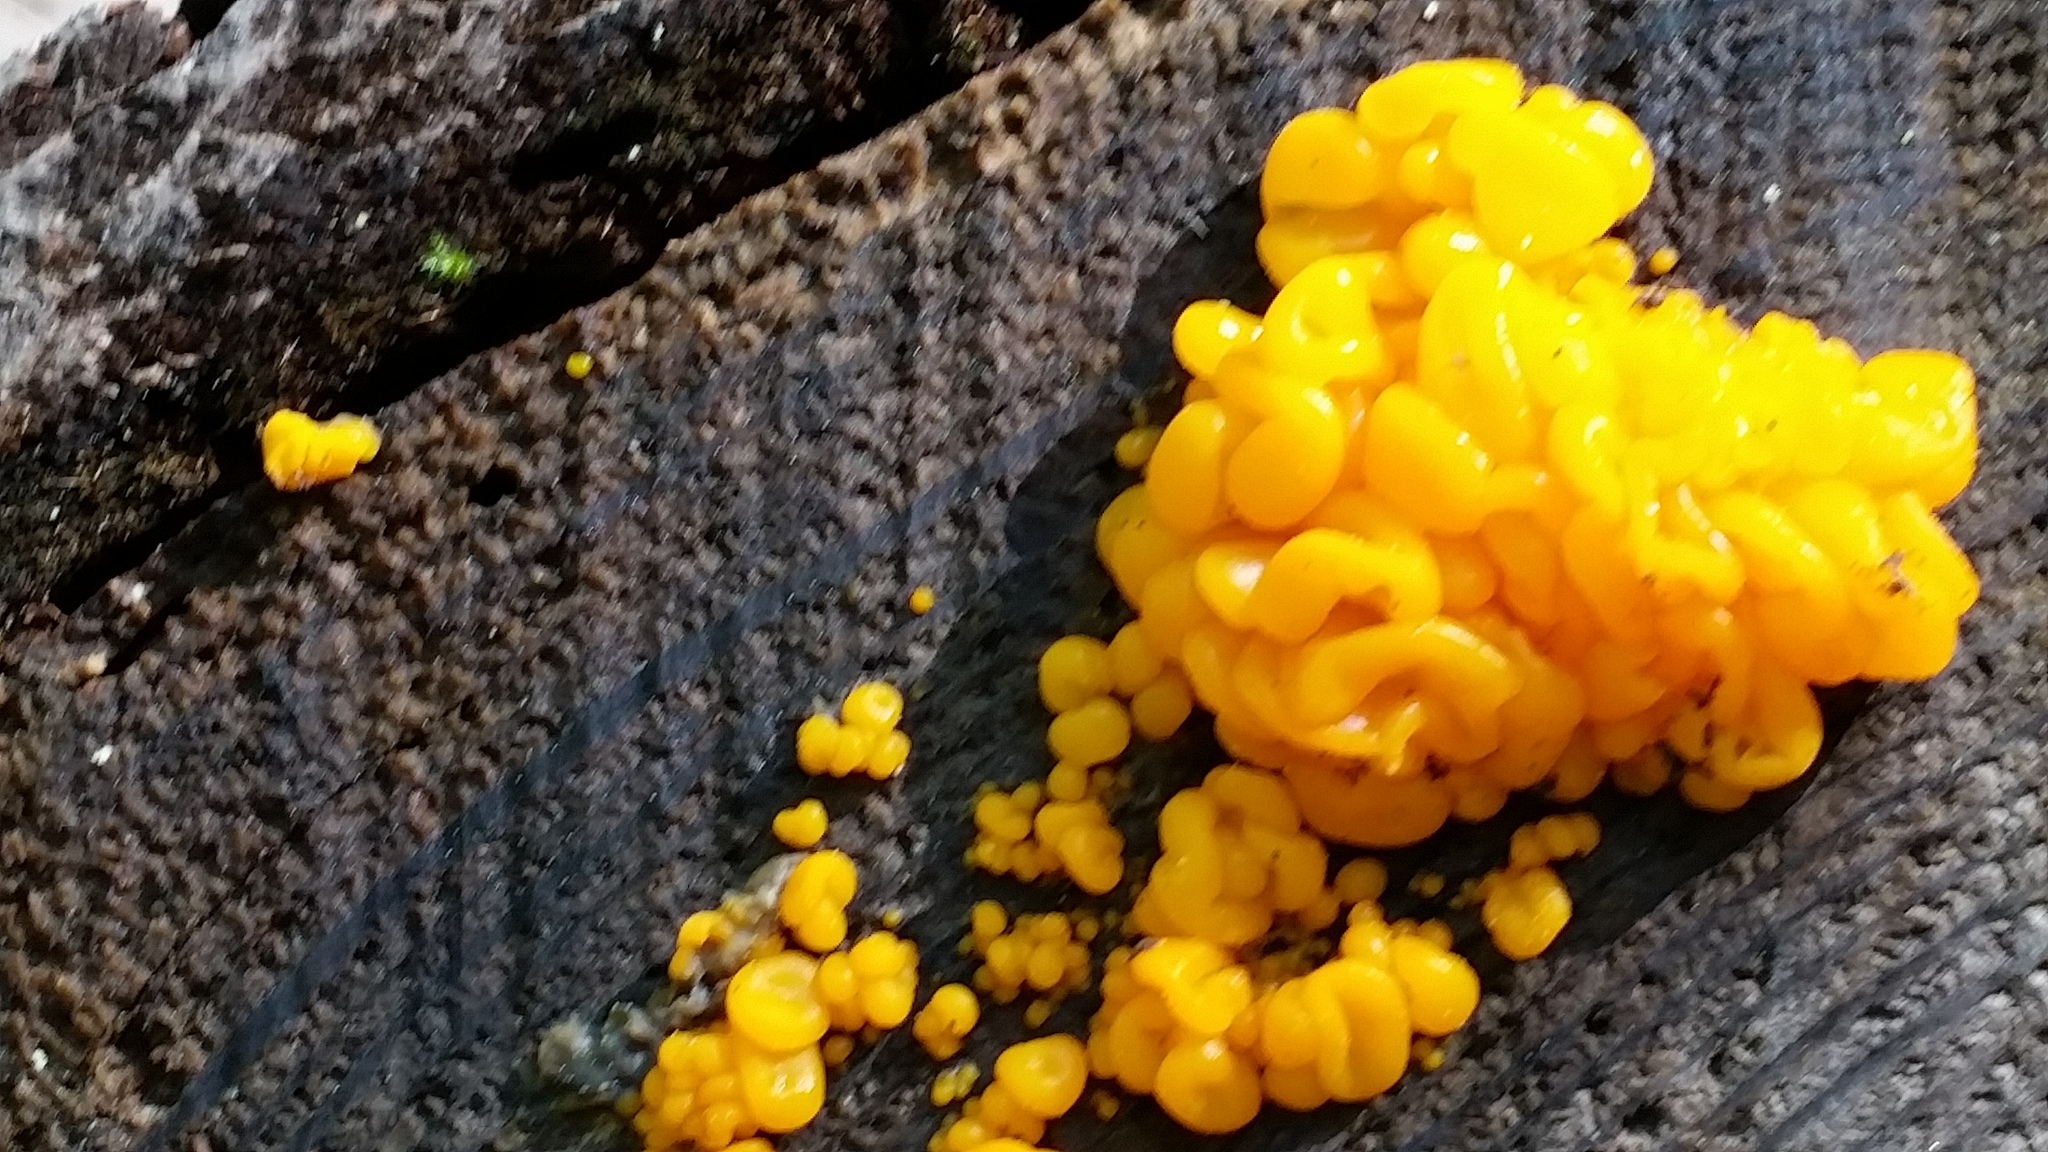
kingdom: Fungi
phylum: Basidiomycota
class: Dacrymycetes
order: Dacrymycetales
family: Dacrymycetaceae
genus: Dacrymyces
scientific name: Dacrymyces chrysospermus
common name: Orange jelly spot
